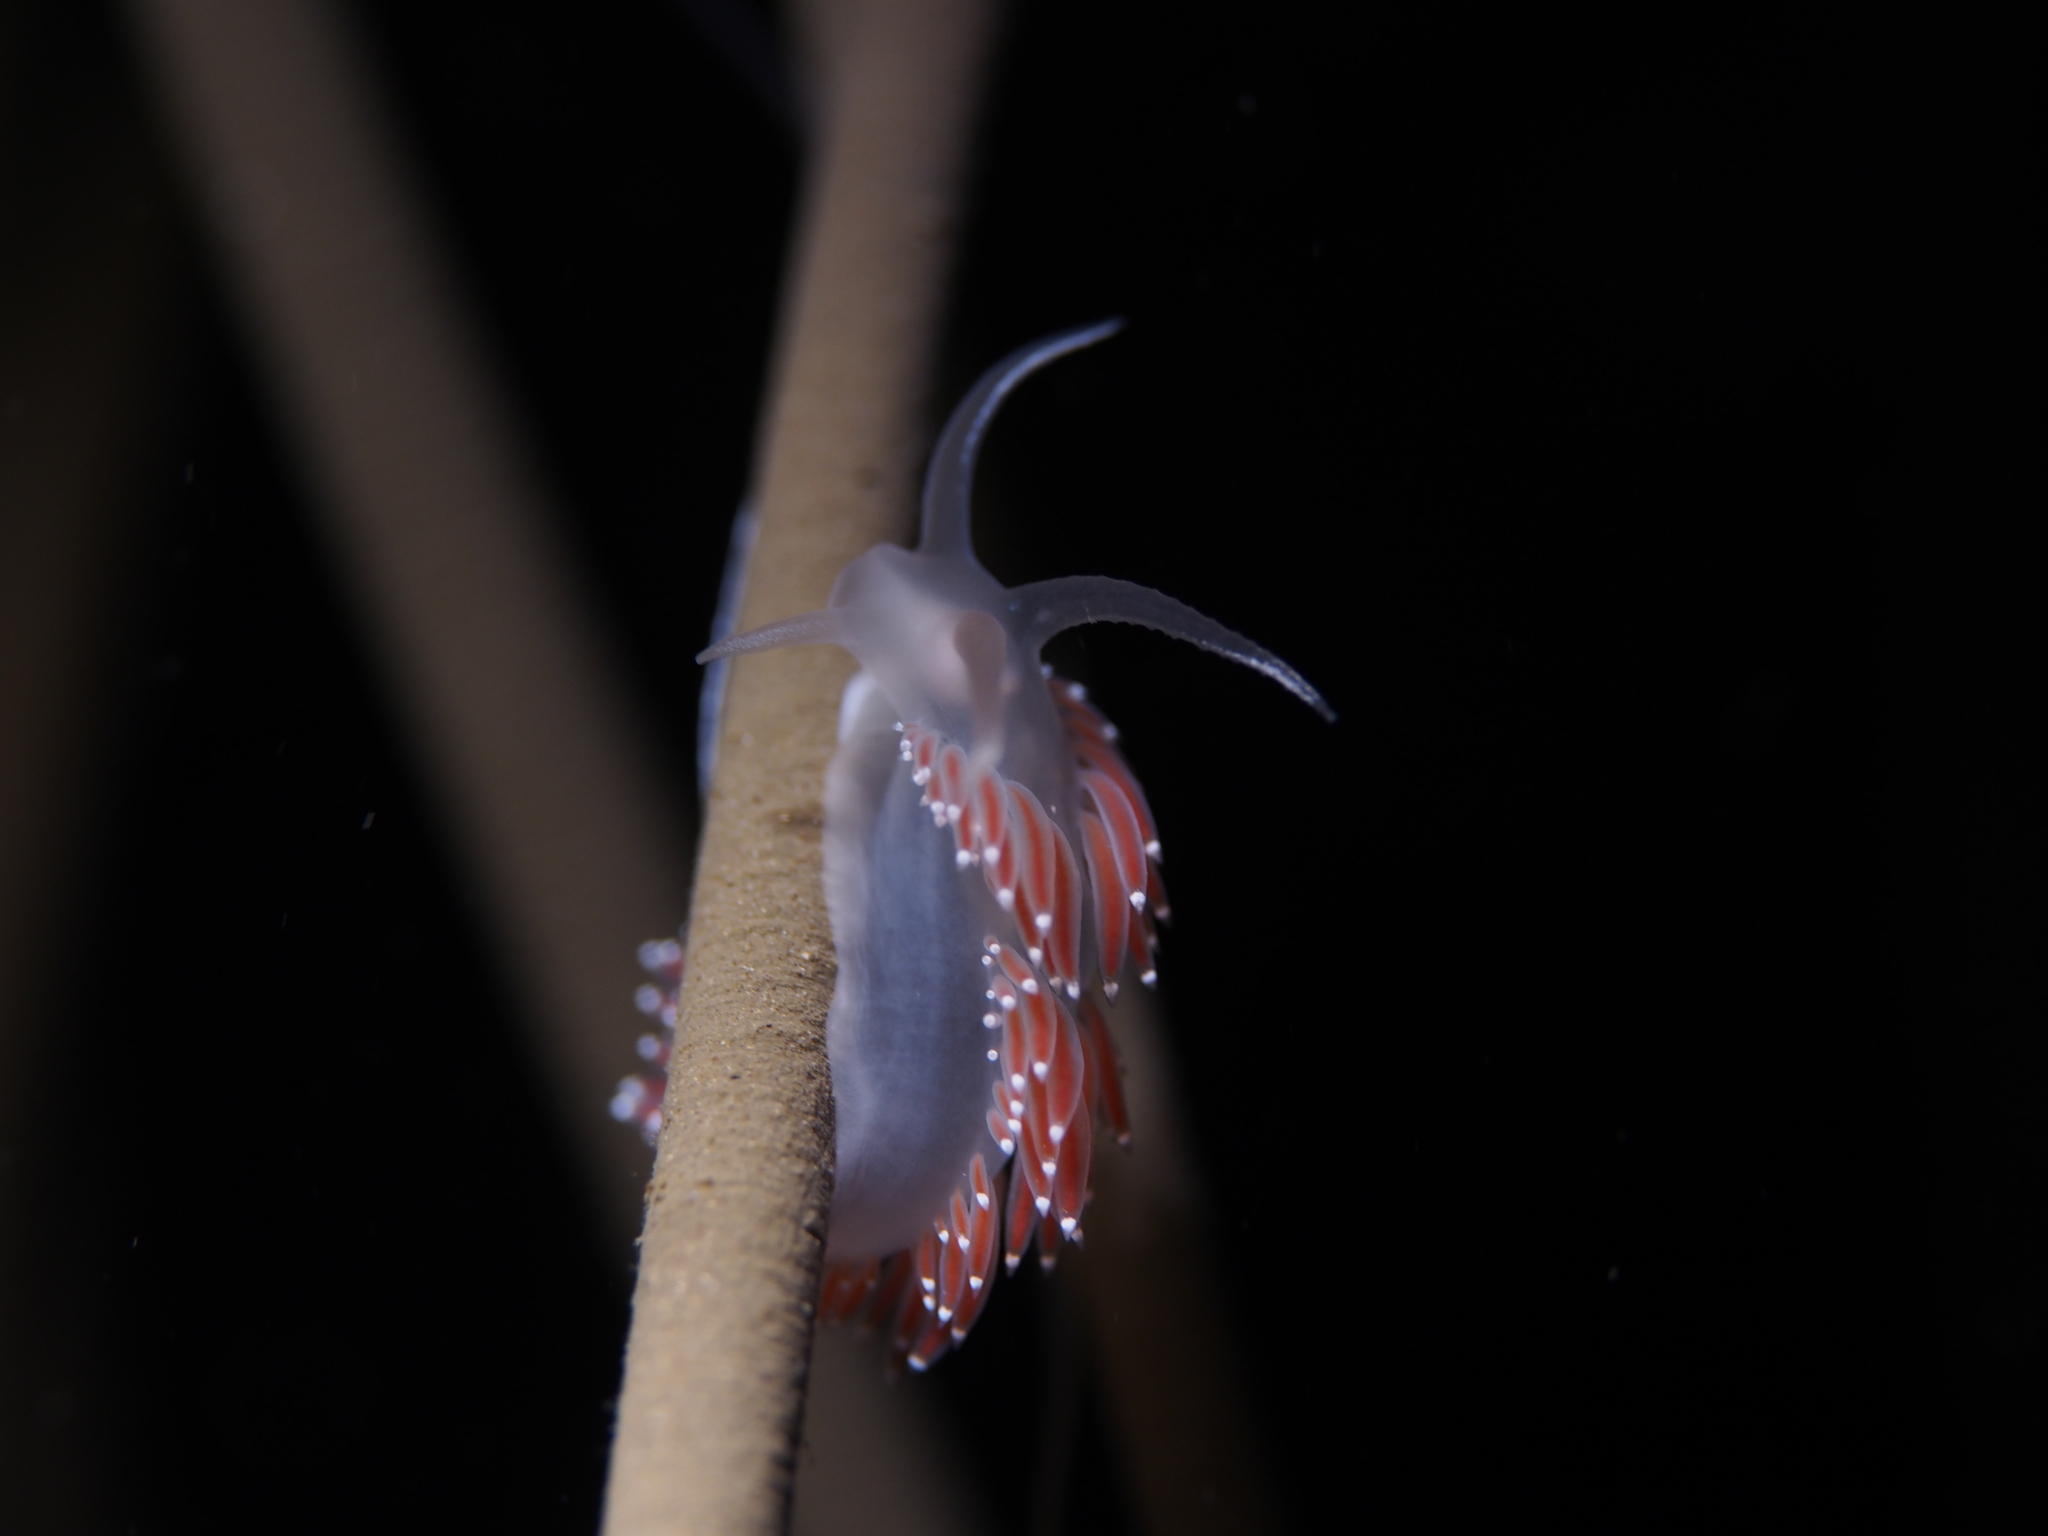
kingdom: Animalia
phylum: Mollusca
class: Gastropoda
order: Nudibranchia
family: Coryphellidae
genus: Coryphella
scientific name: Coryphella verrucosa
